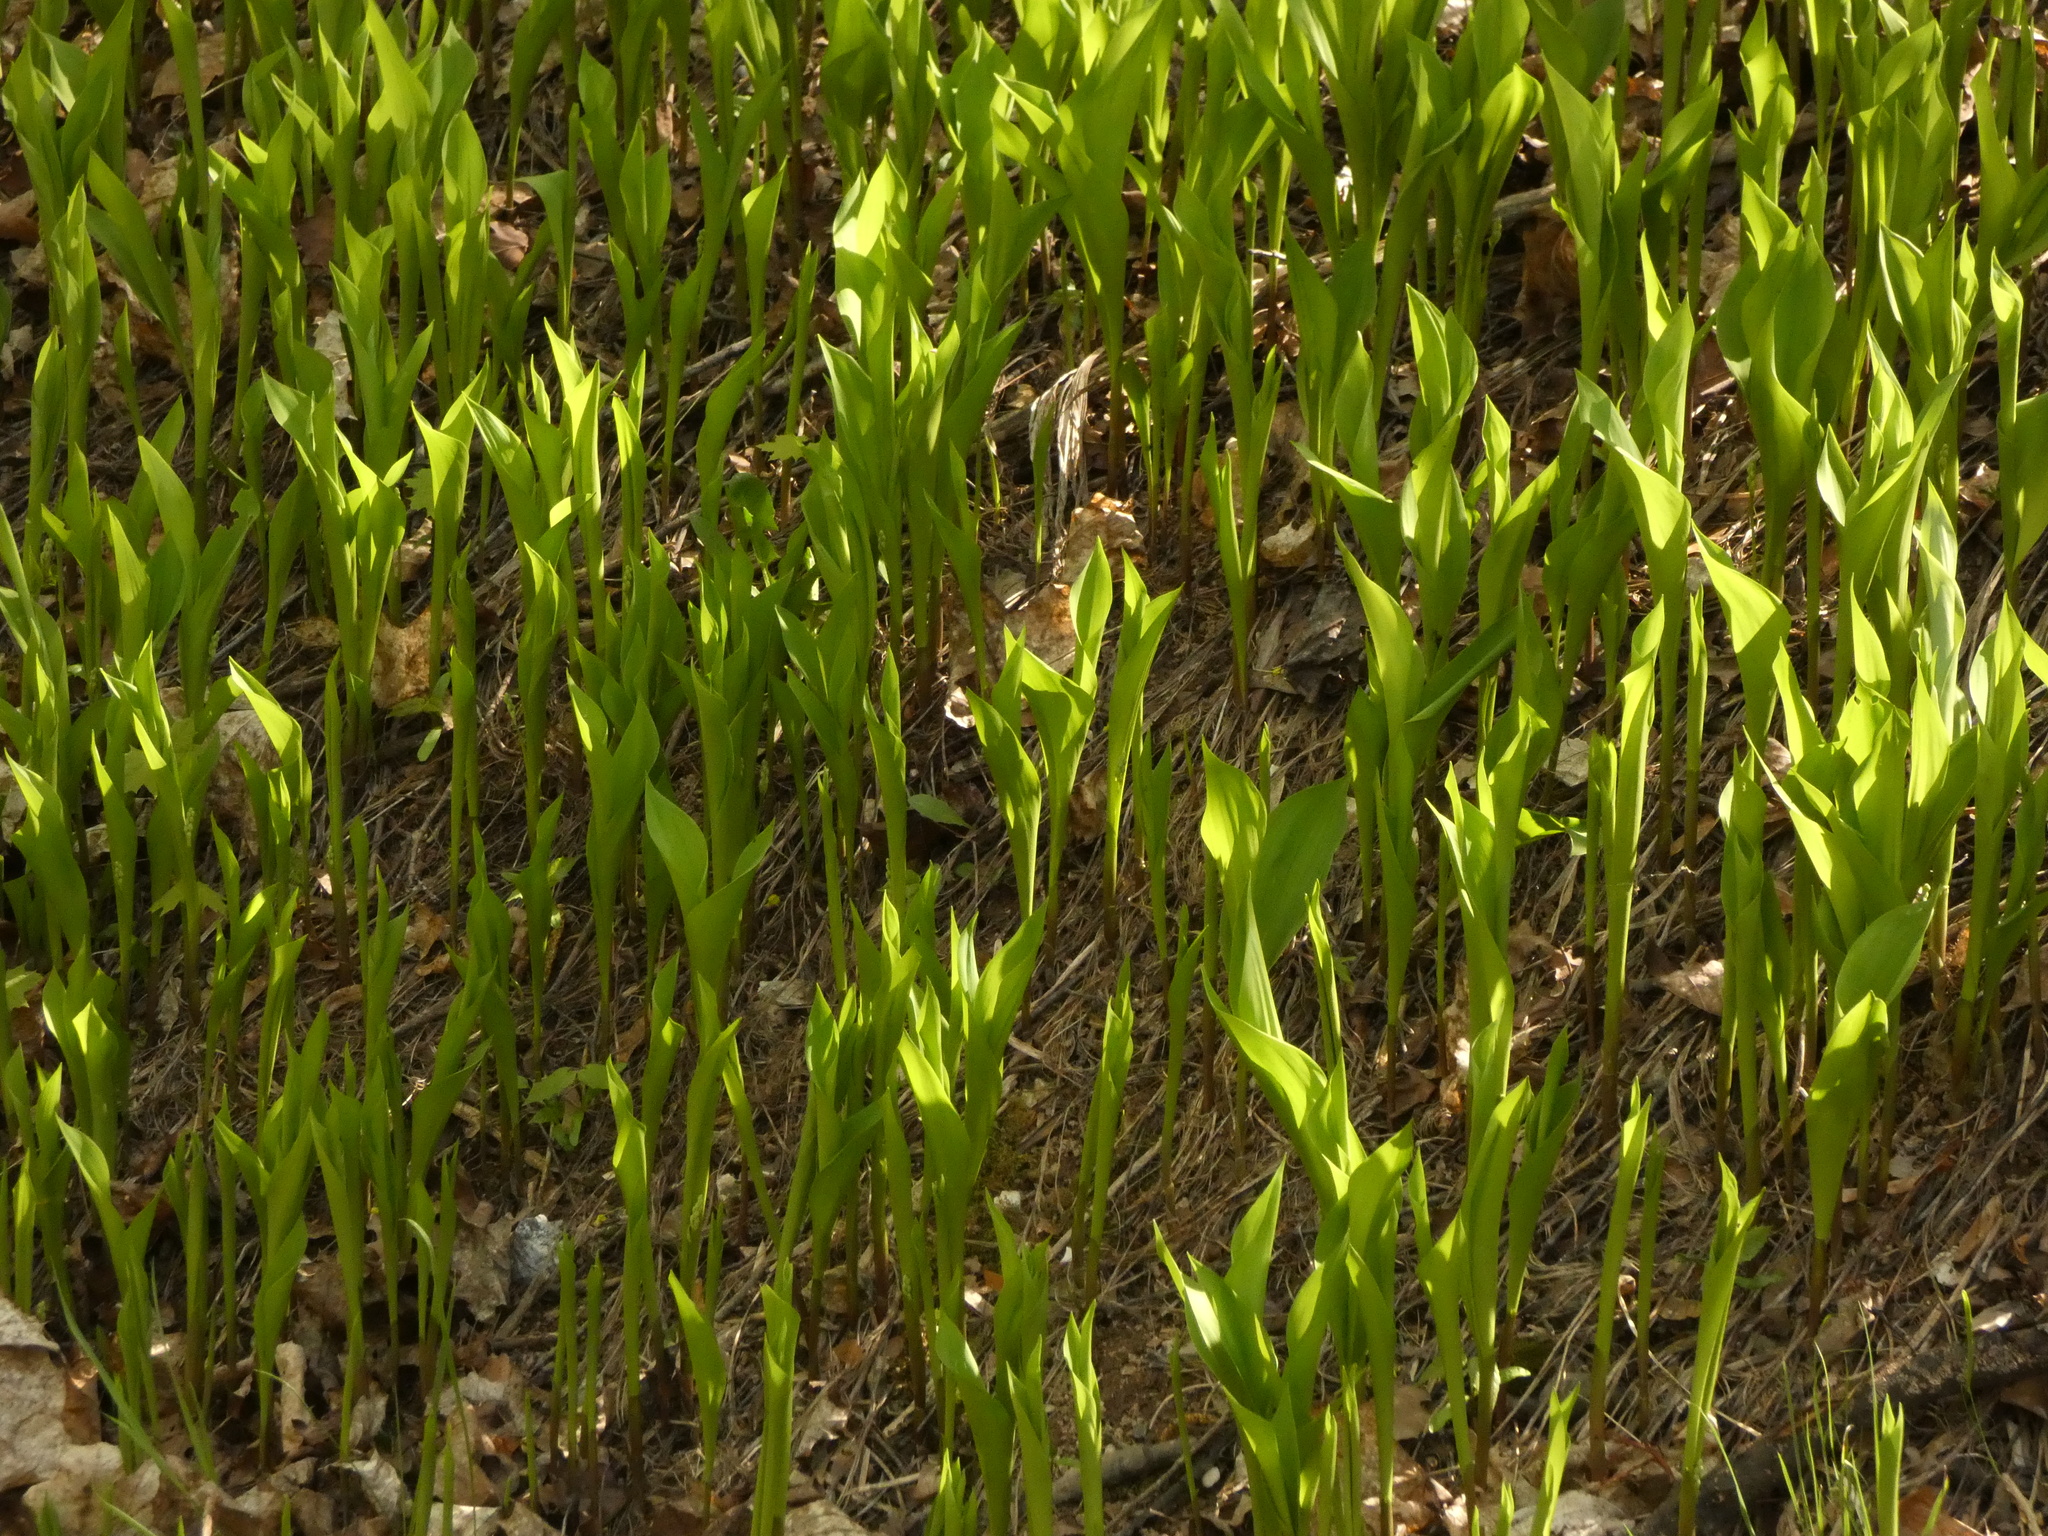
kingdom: Plantae
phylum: Tracheophyta
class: Liliopsida
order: Asparagales
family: Asparagaceae
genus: Convallaria
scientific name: Convallaria majalis
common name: Lily-of-the-valley
